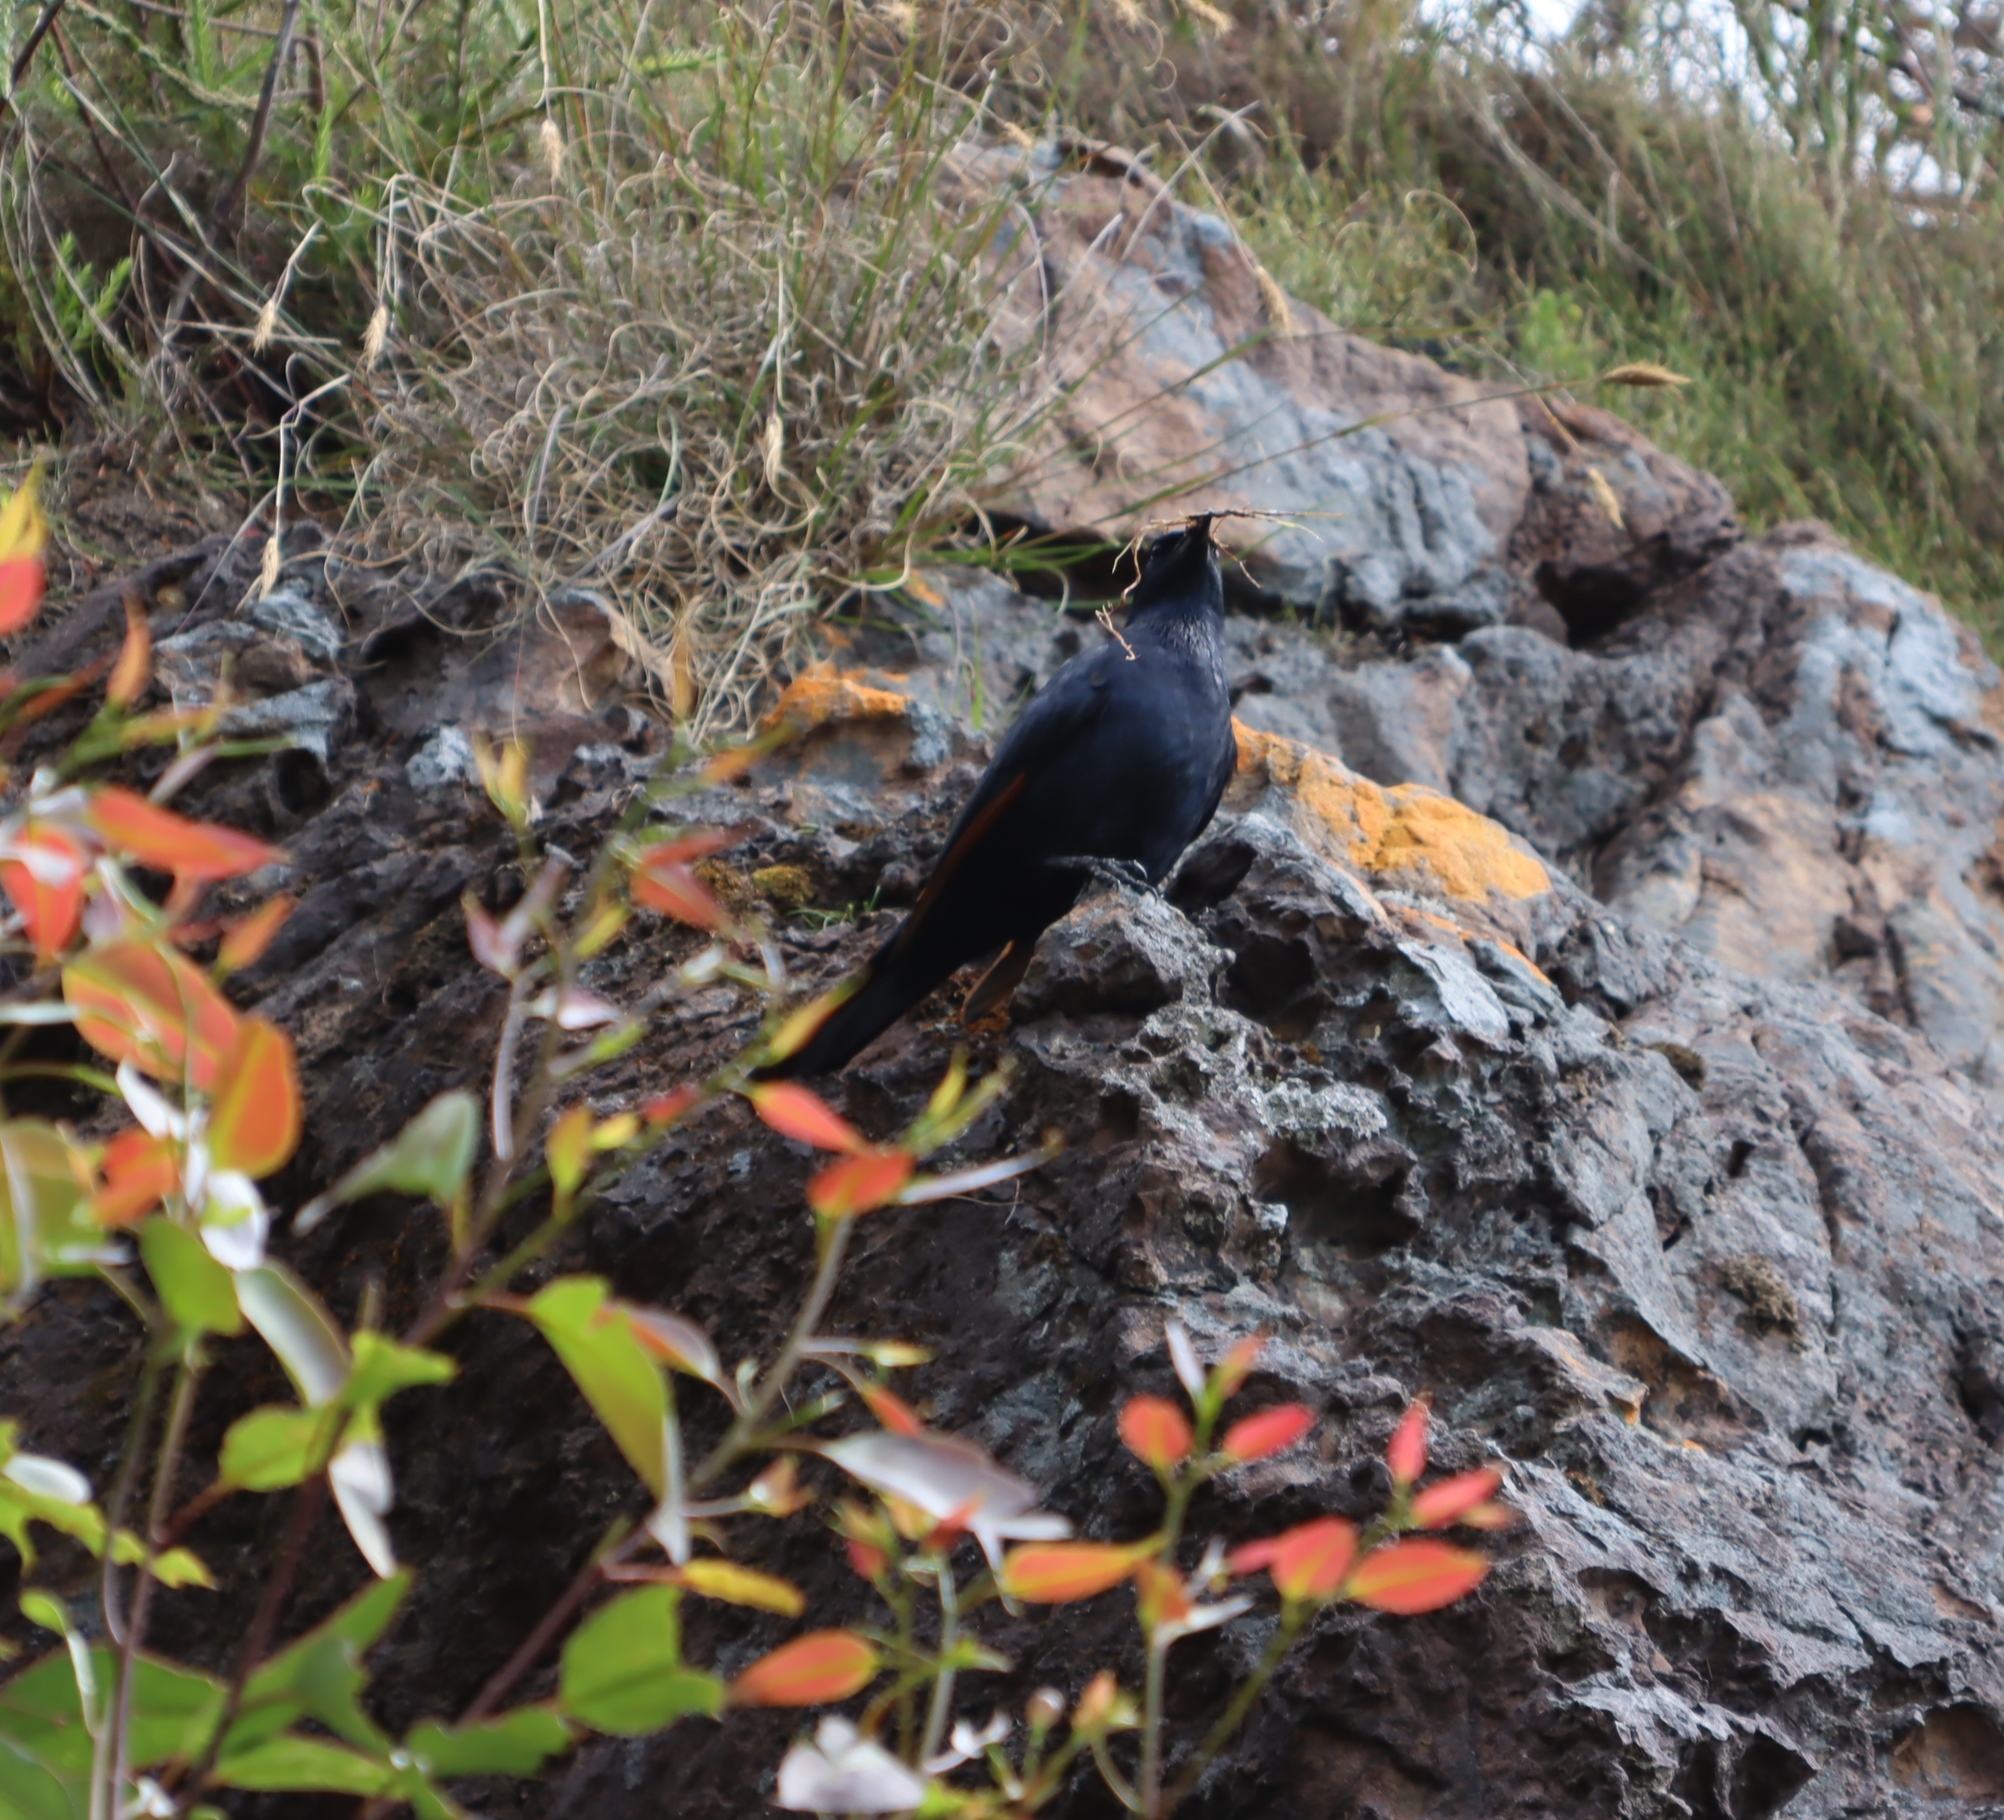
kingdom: Animalia
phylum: Chordata
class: Aves
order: Passeriformes
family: Sturnidae
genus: Onychognathus
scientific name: Onychognathus morio
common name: Red-winged starling
